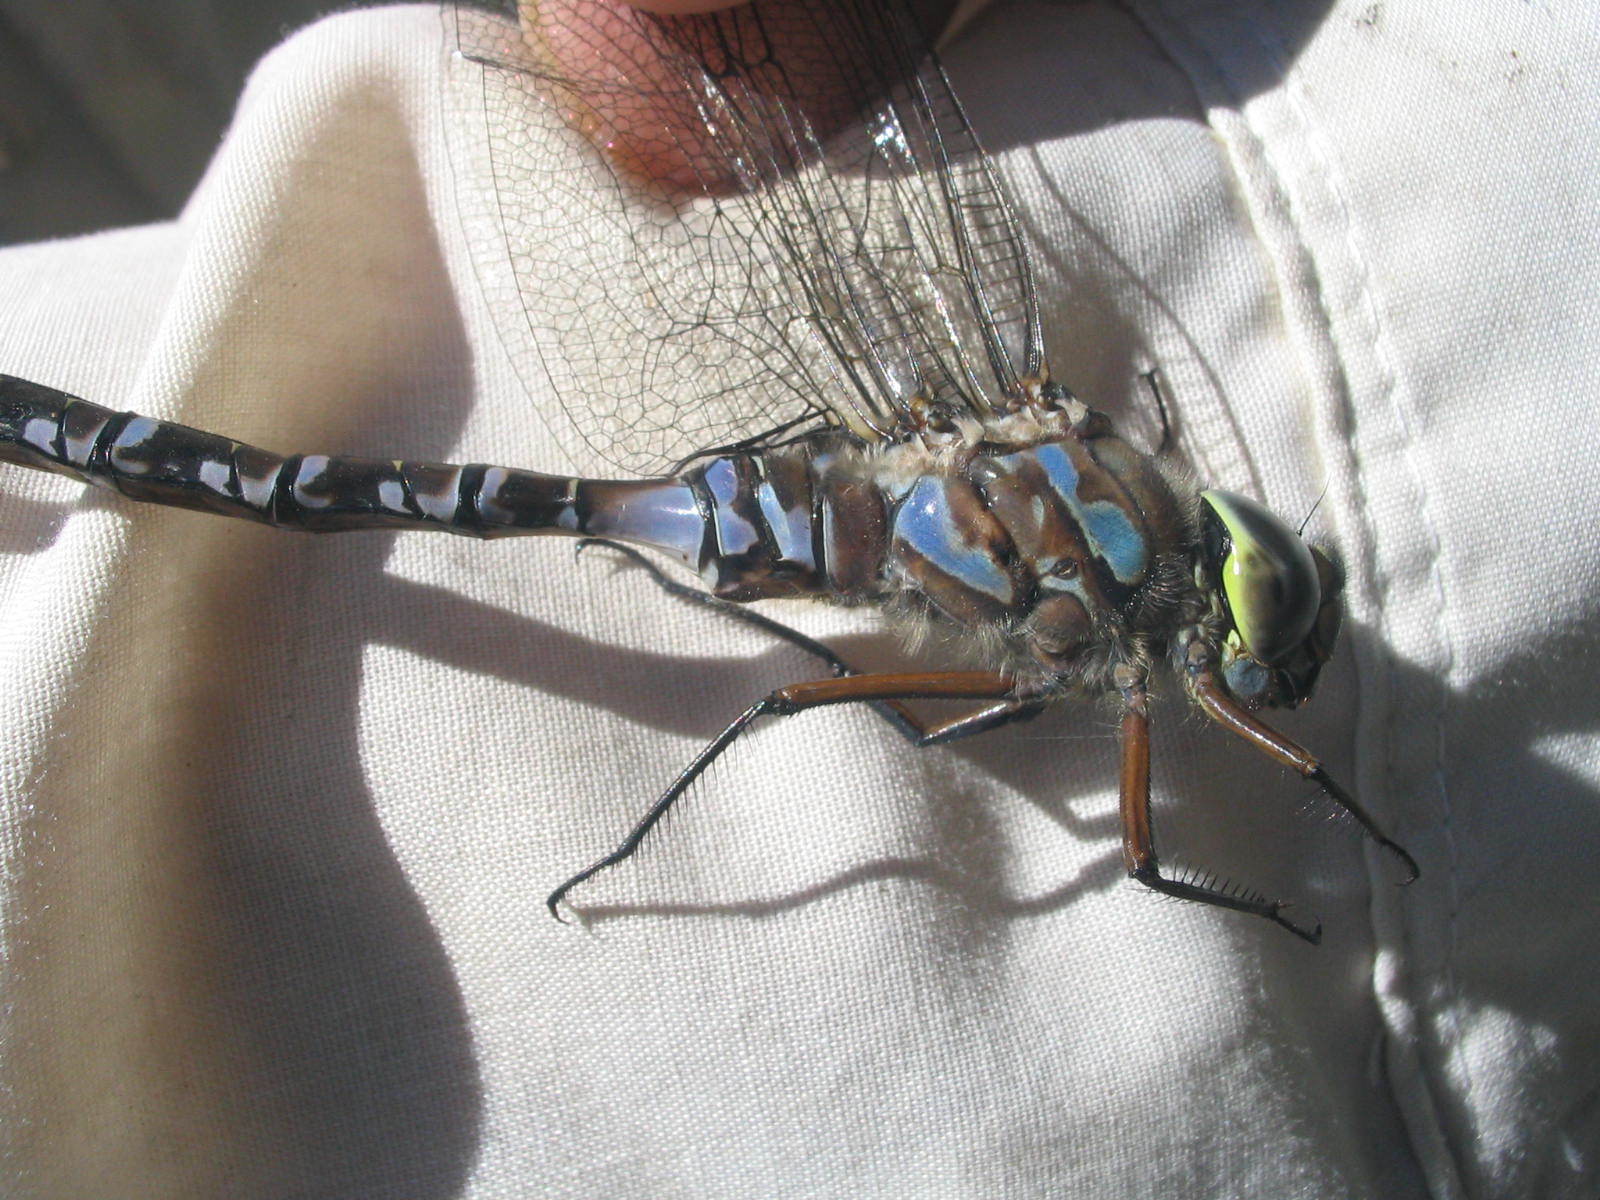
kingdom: Animalia
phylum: Arthropoda
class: Insecta
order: Odonata
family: Aeshnidae
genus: Aeshna
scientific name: Aeshna eremita
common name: Lake darner
